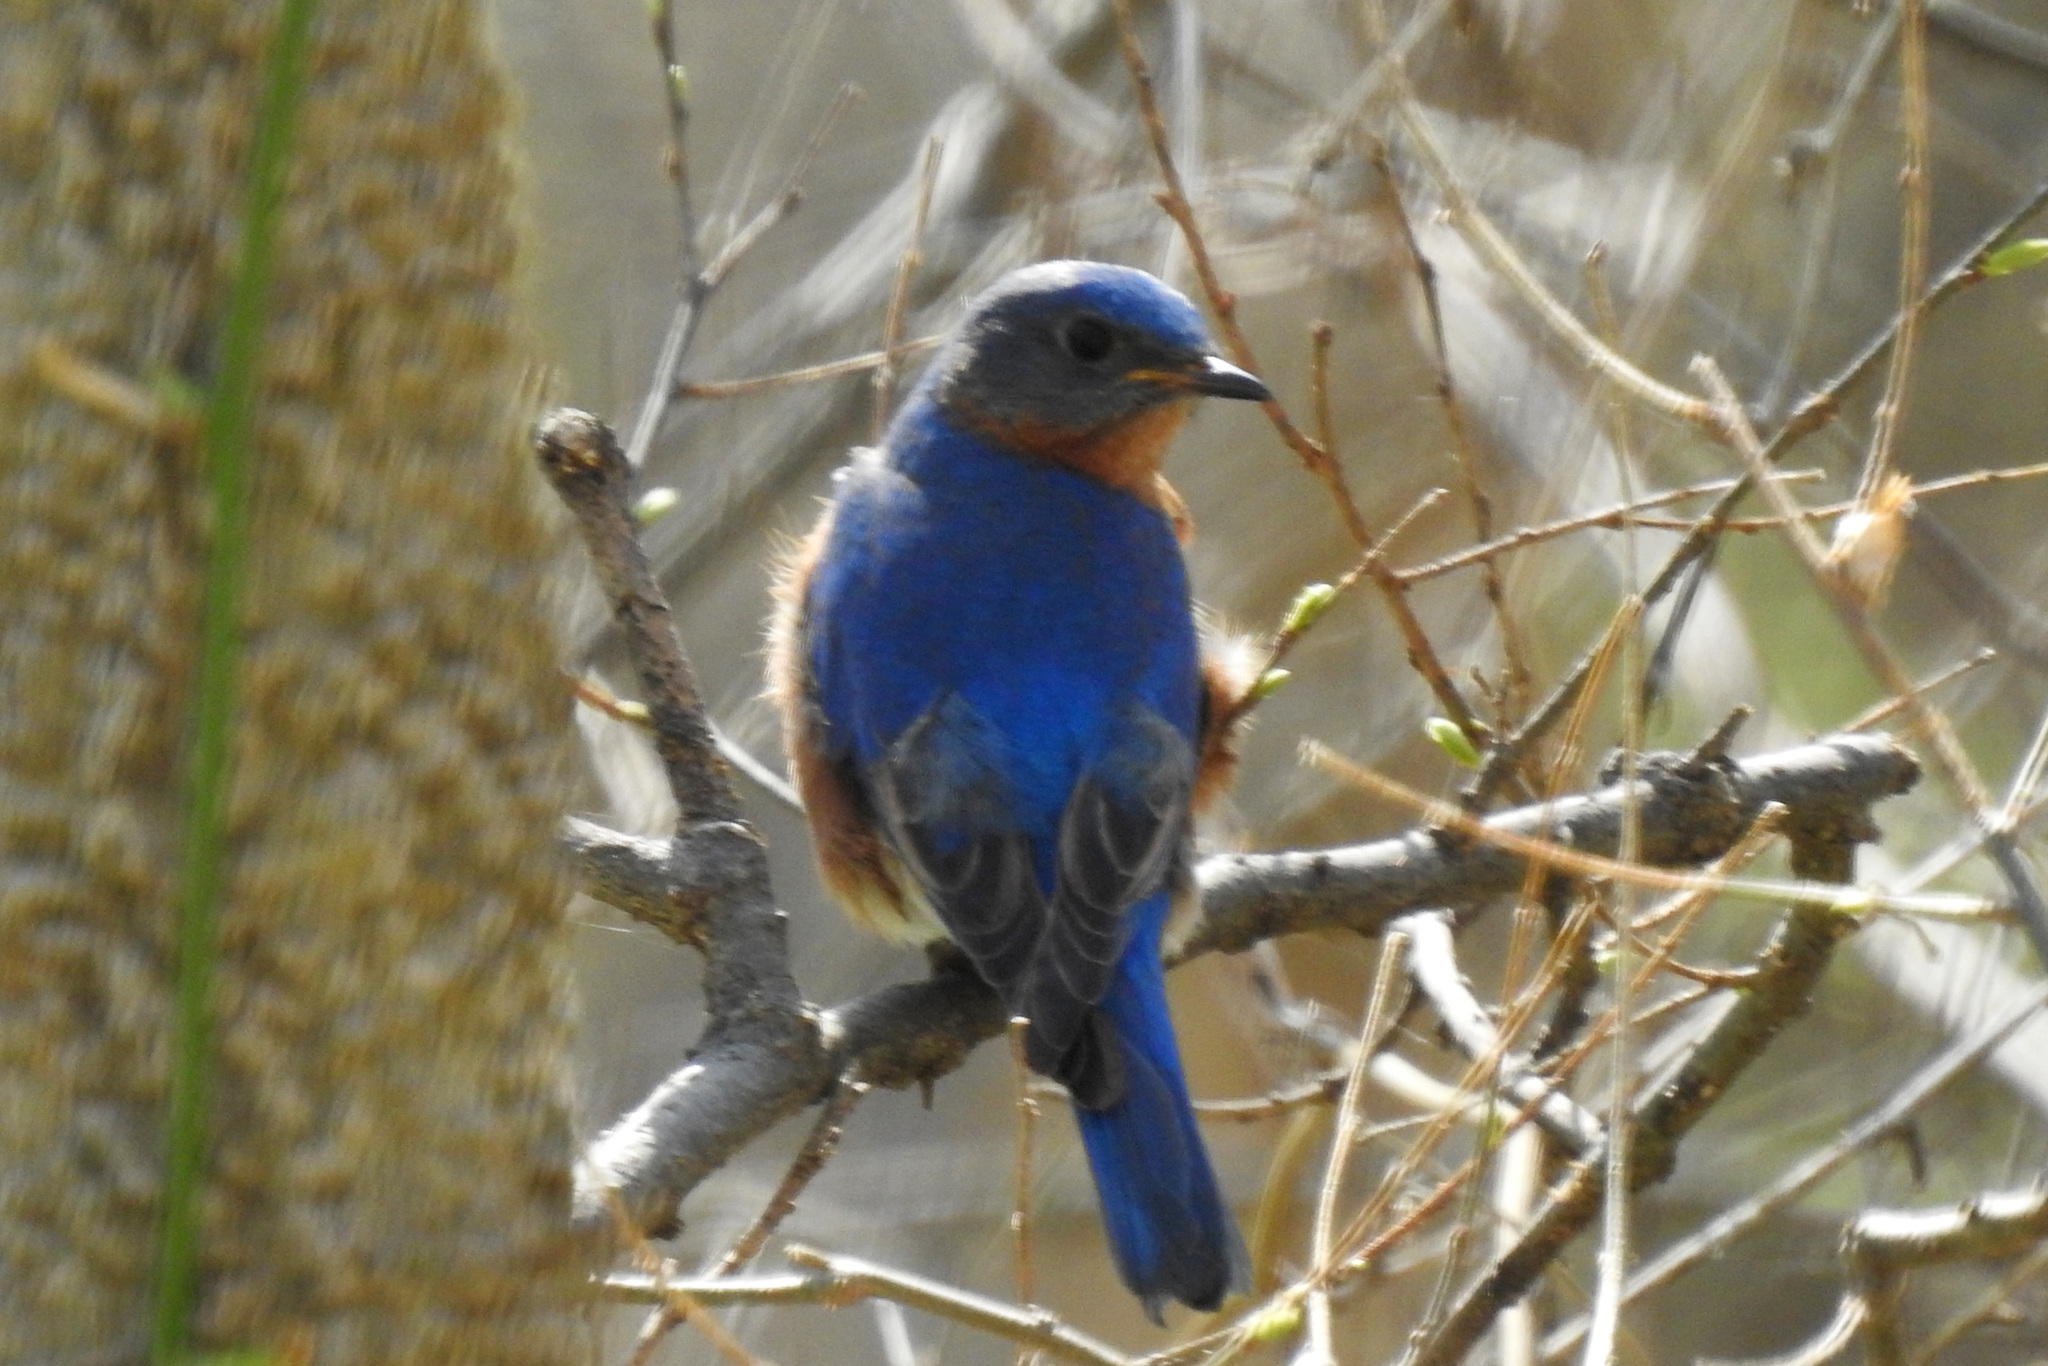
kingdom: Animalia
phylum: Chordata
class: Aves
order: Passeriformes
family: Turdidae
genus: Sialia
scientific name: Sialia sialis
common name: Eastern bluebird
